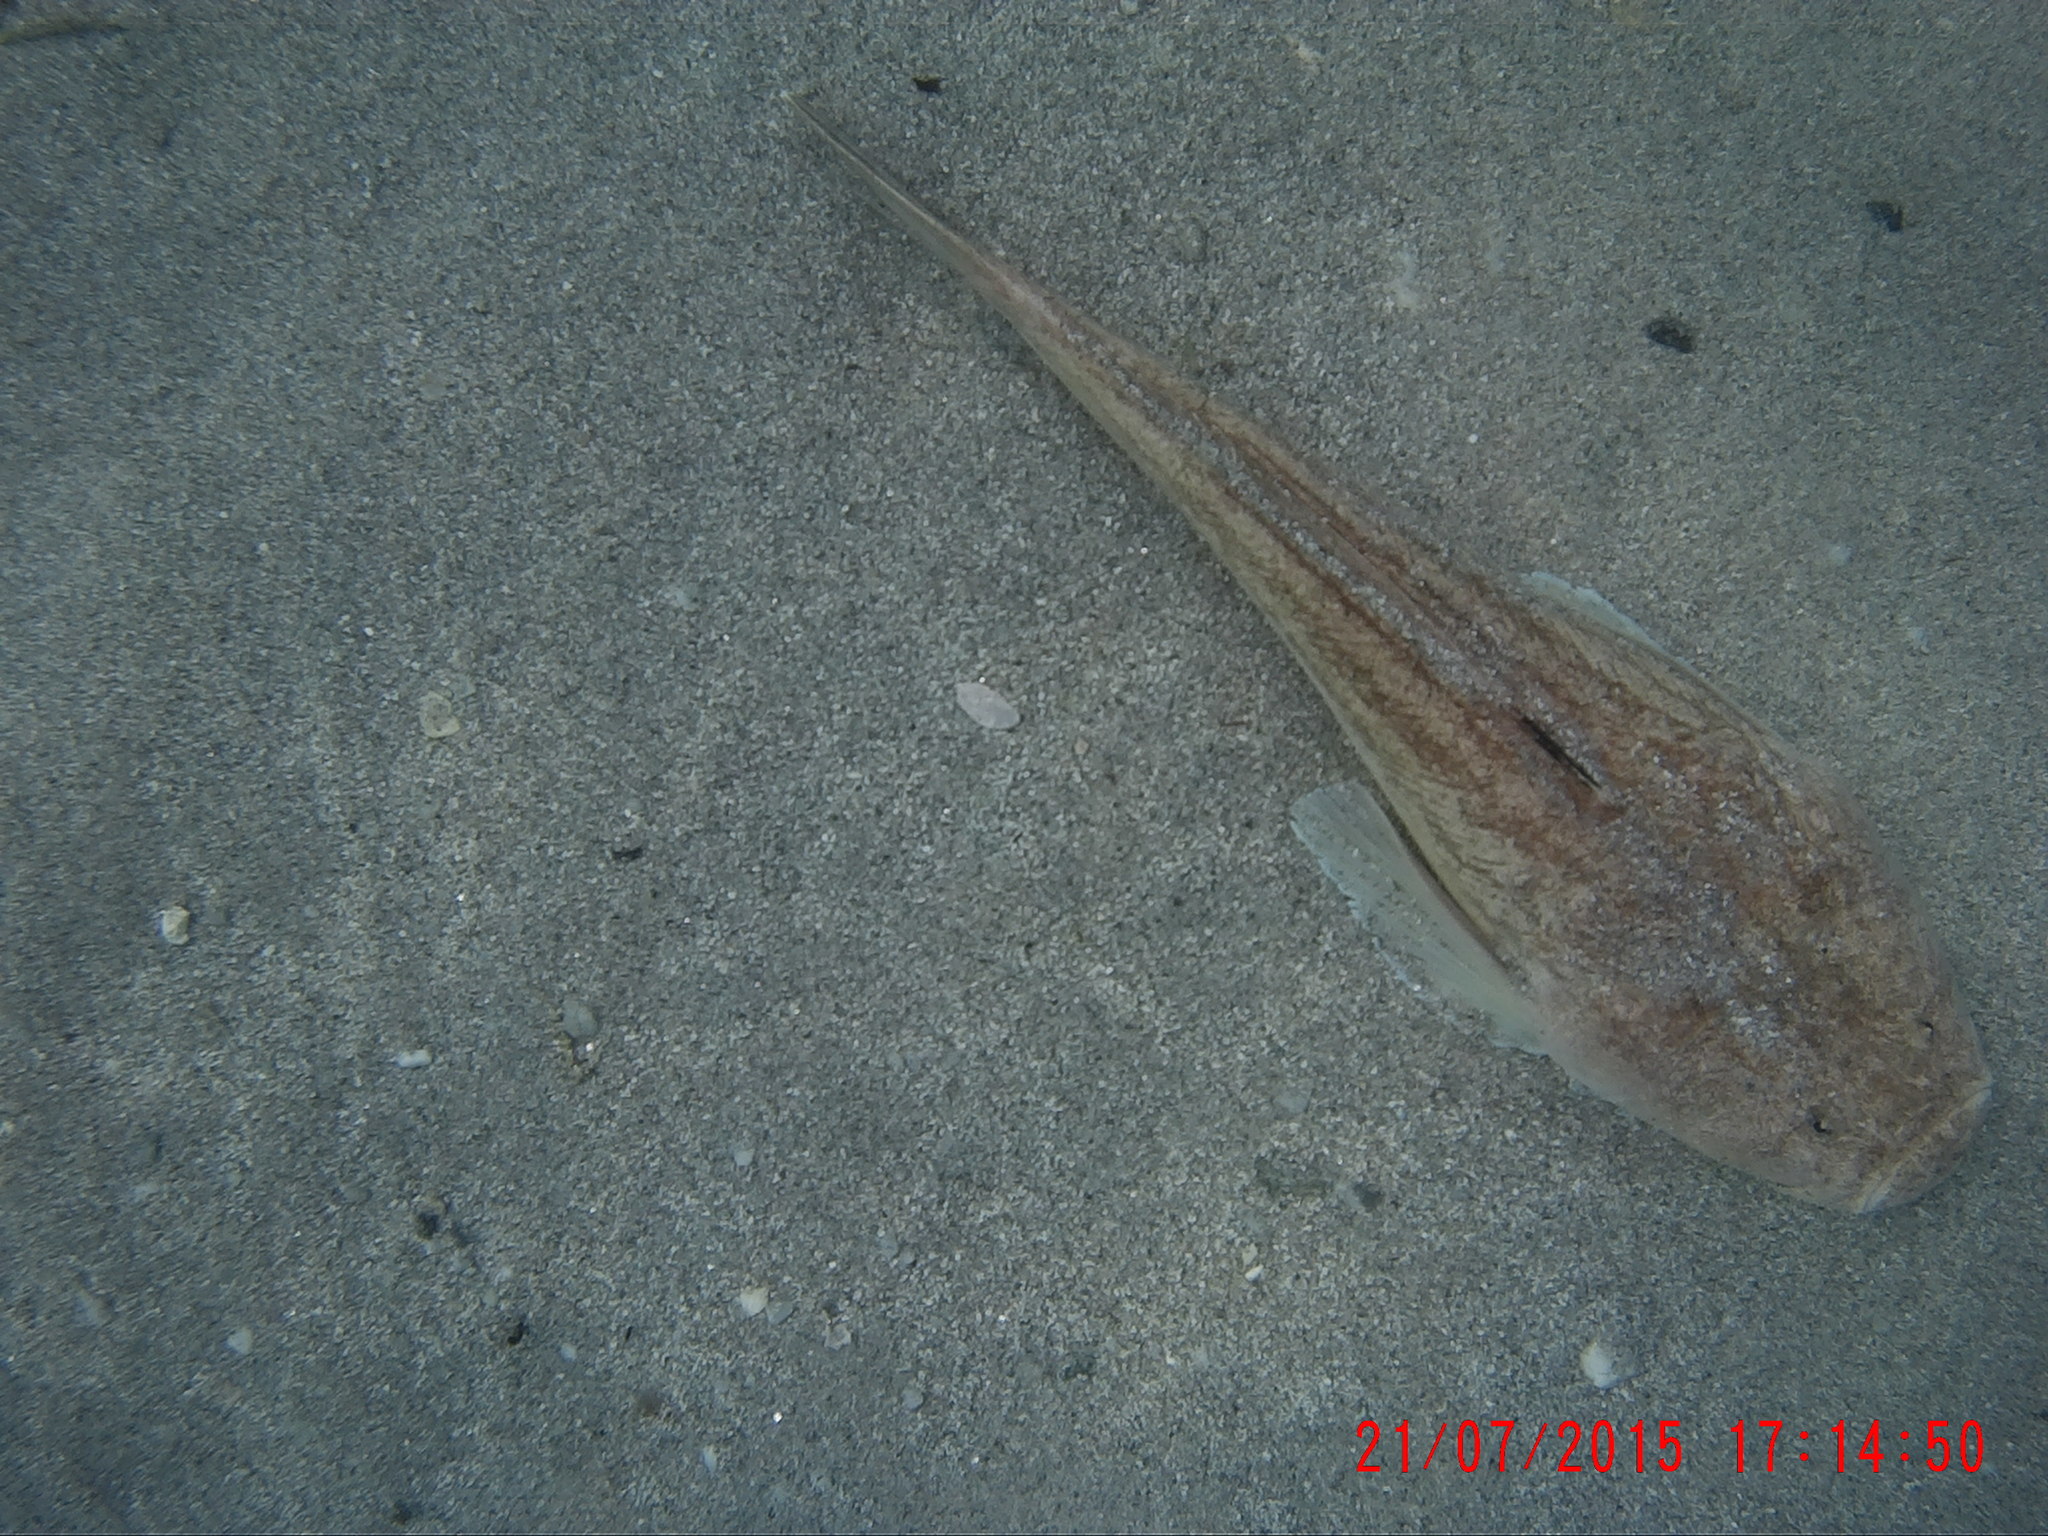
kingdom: Animalia
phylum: Chordata
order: Perciformes
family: Uranoscopidae
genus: Uranoscopus
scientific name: Uranoscopus scaber
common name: Stargazer
